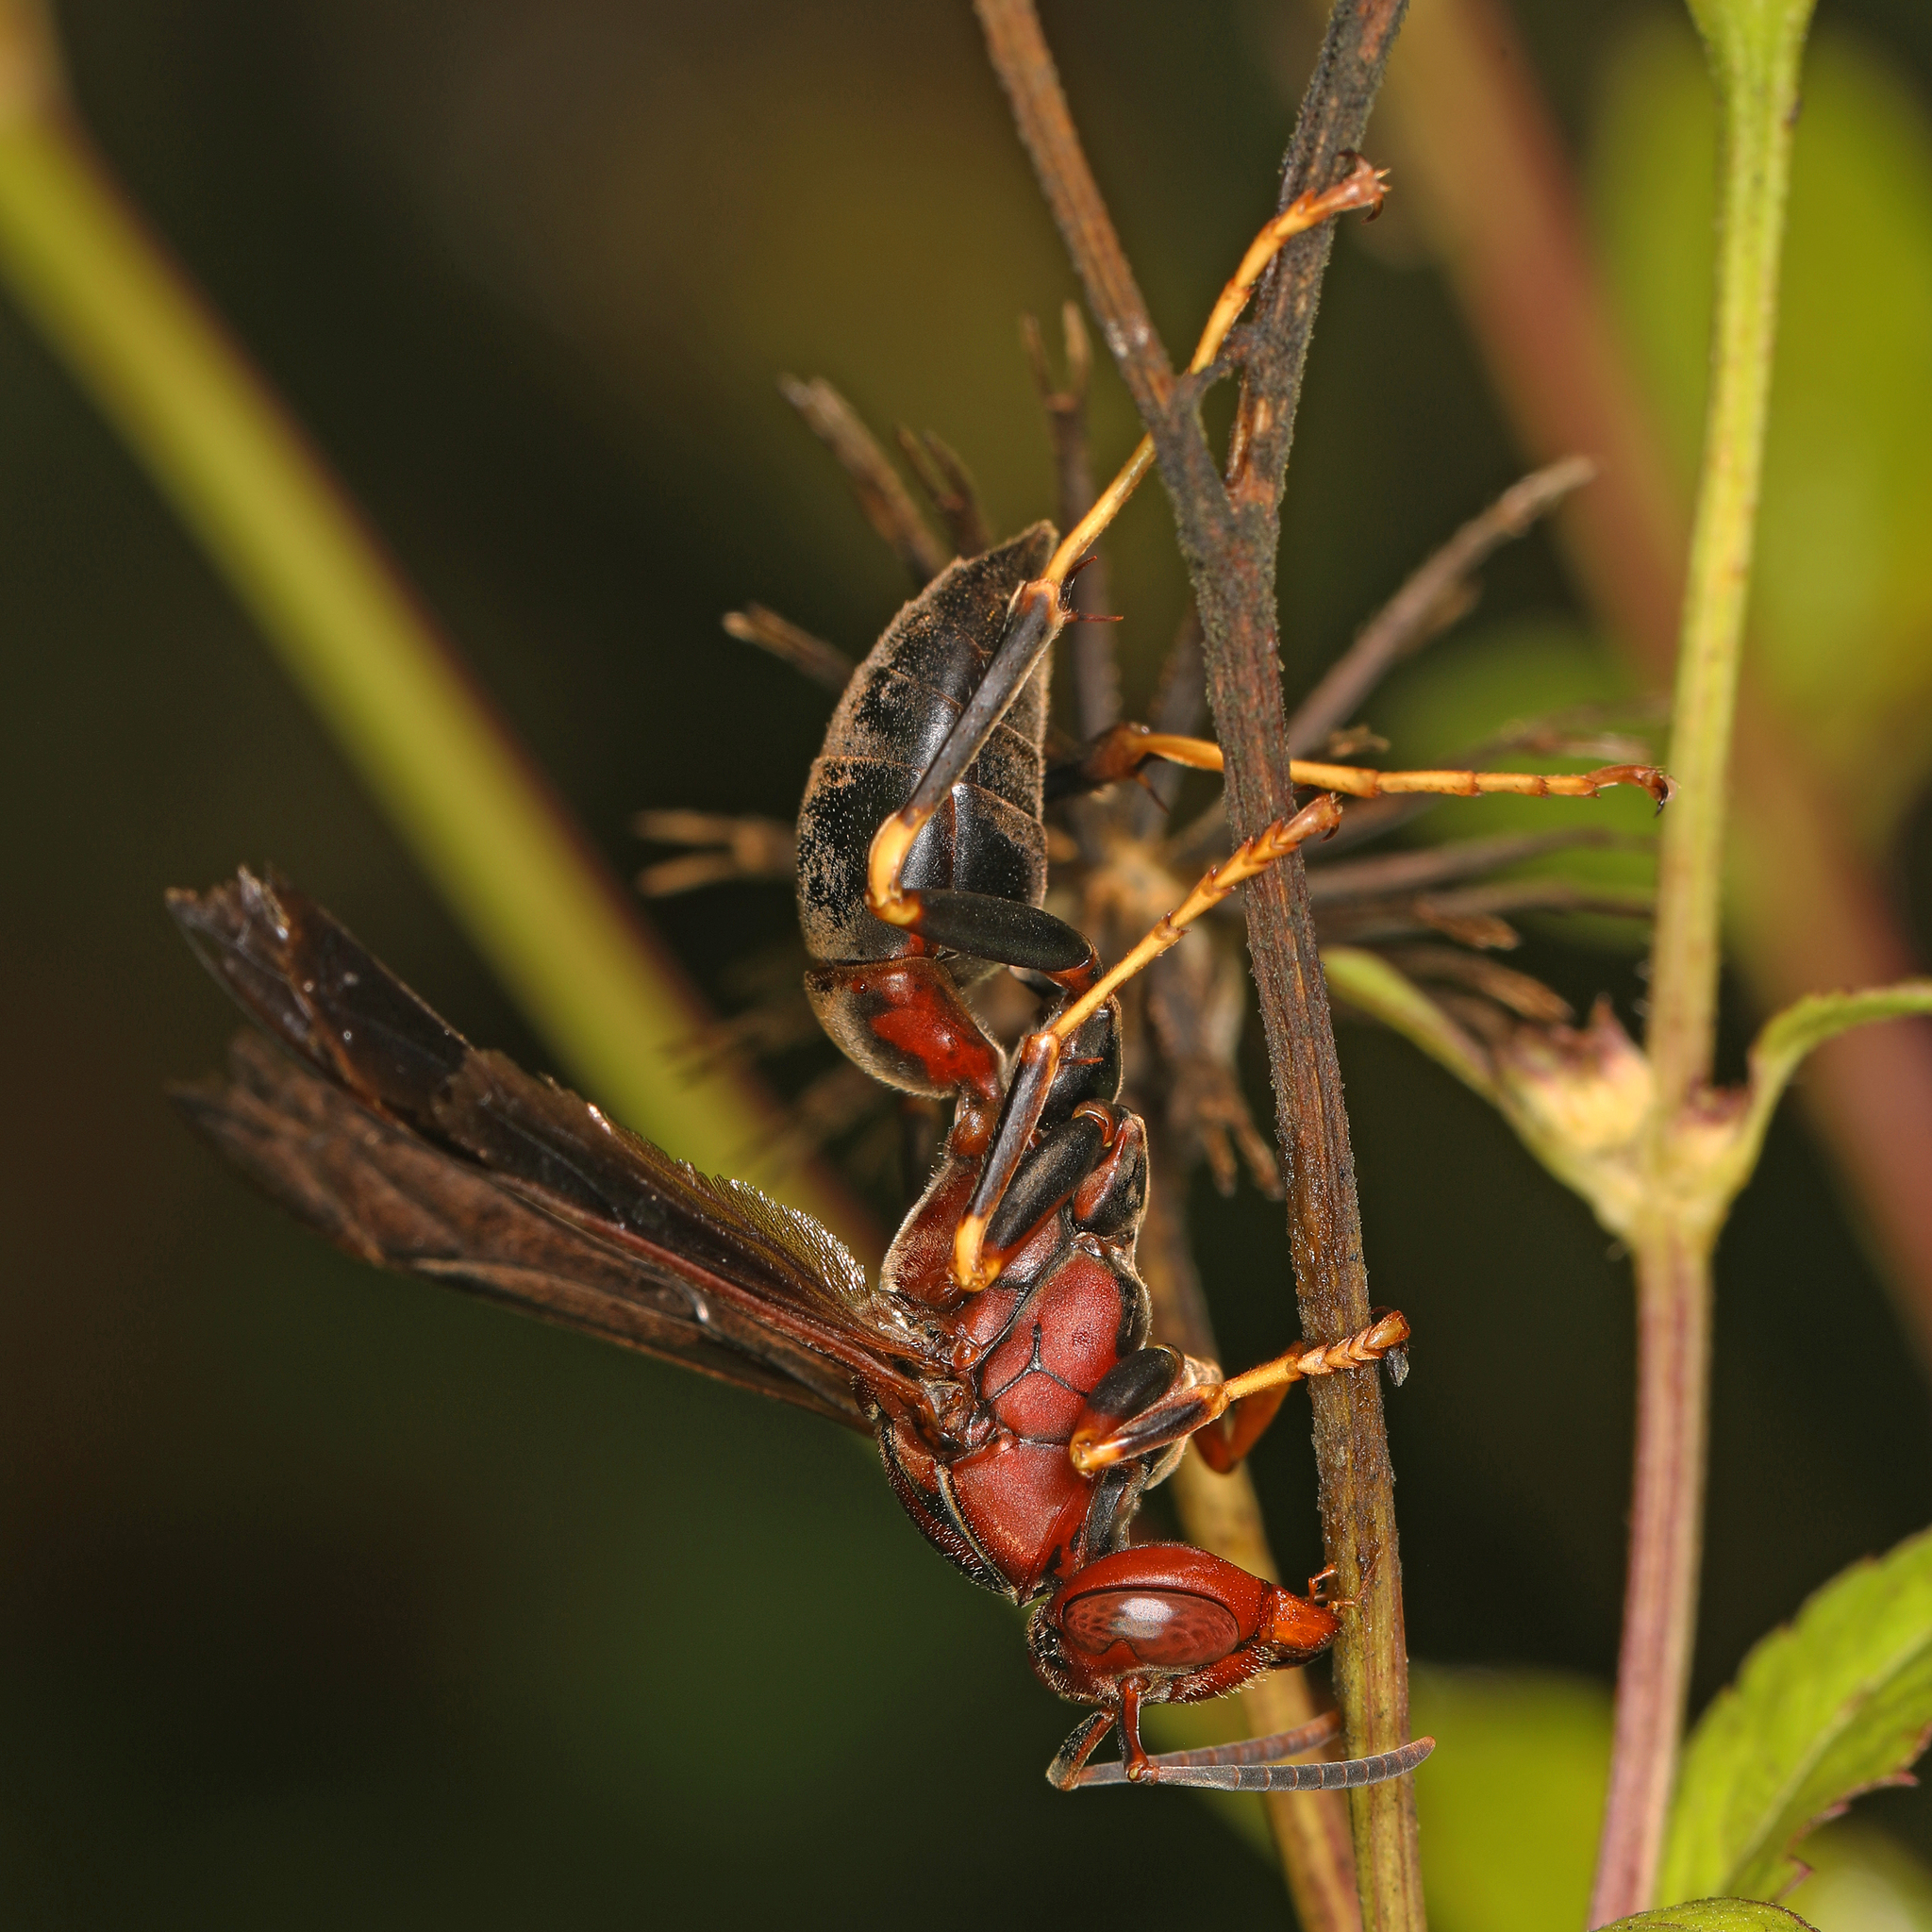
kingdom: Animalia
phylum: Arthropoda
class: Insecta
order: Hymenoptera
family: Eumenidae
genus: Polistes
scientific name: Polistes metricus
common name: Metric paper wasp
